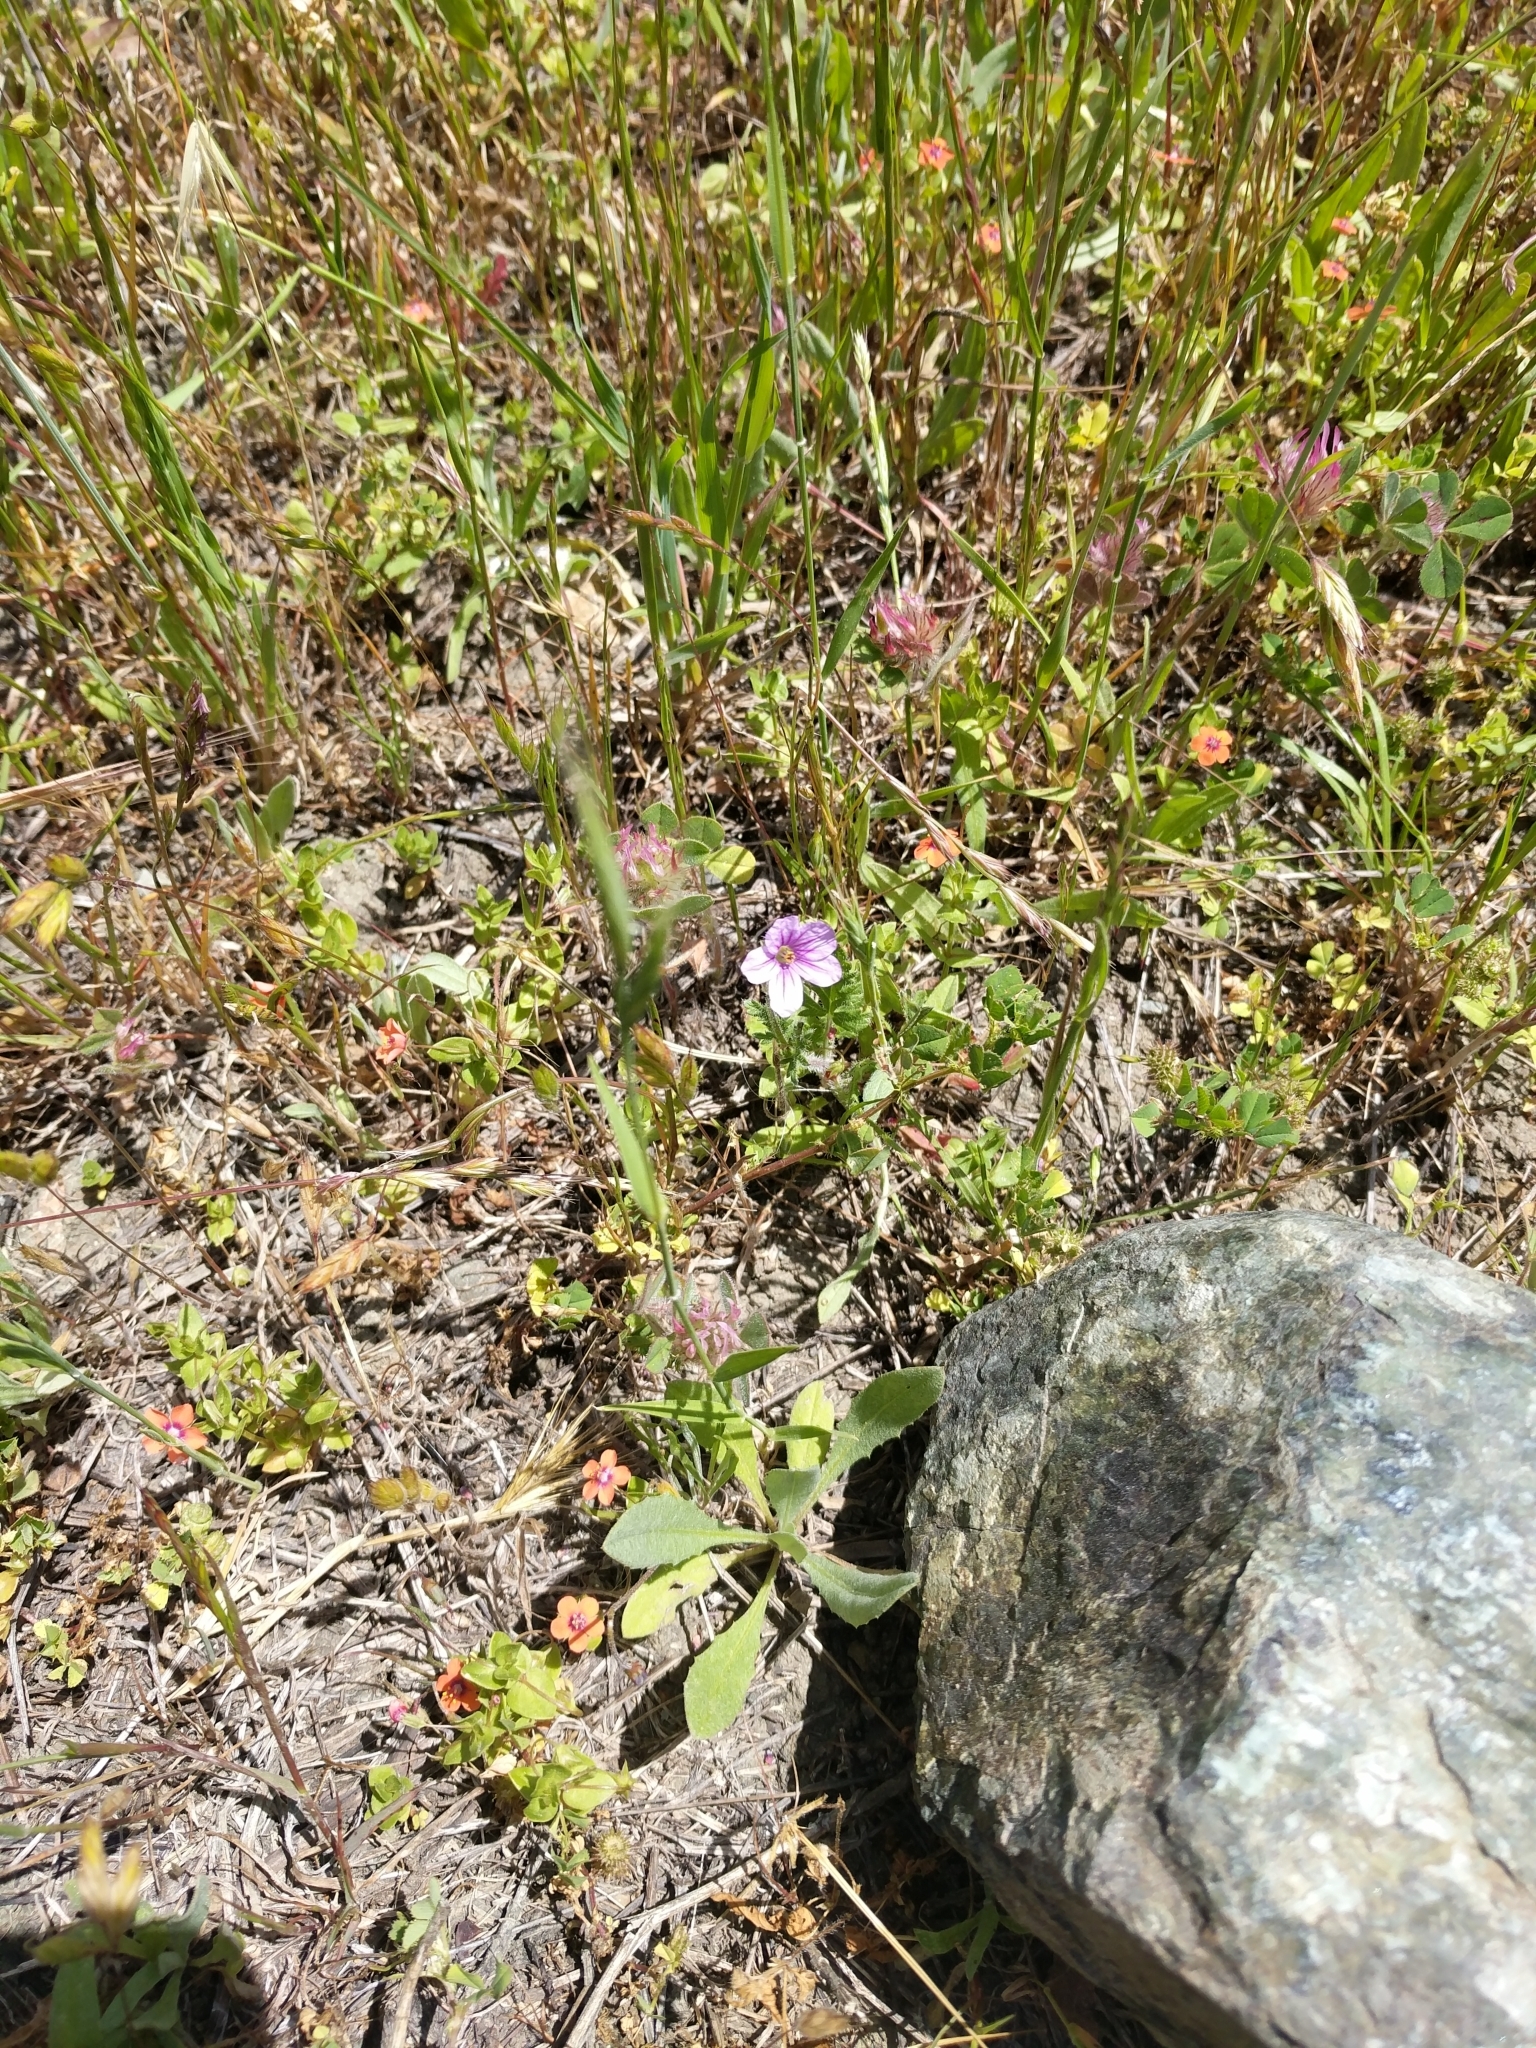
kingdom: Plantae
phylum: Tracheophyta
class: Magnoliopsida
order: Geraniales
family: Geraniaceae
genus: Erodium
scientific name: Erodium botrys
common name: Mediterranean stork's-bill
